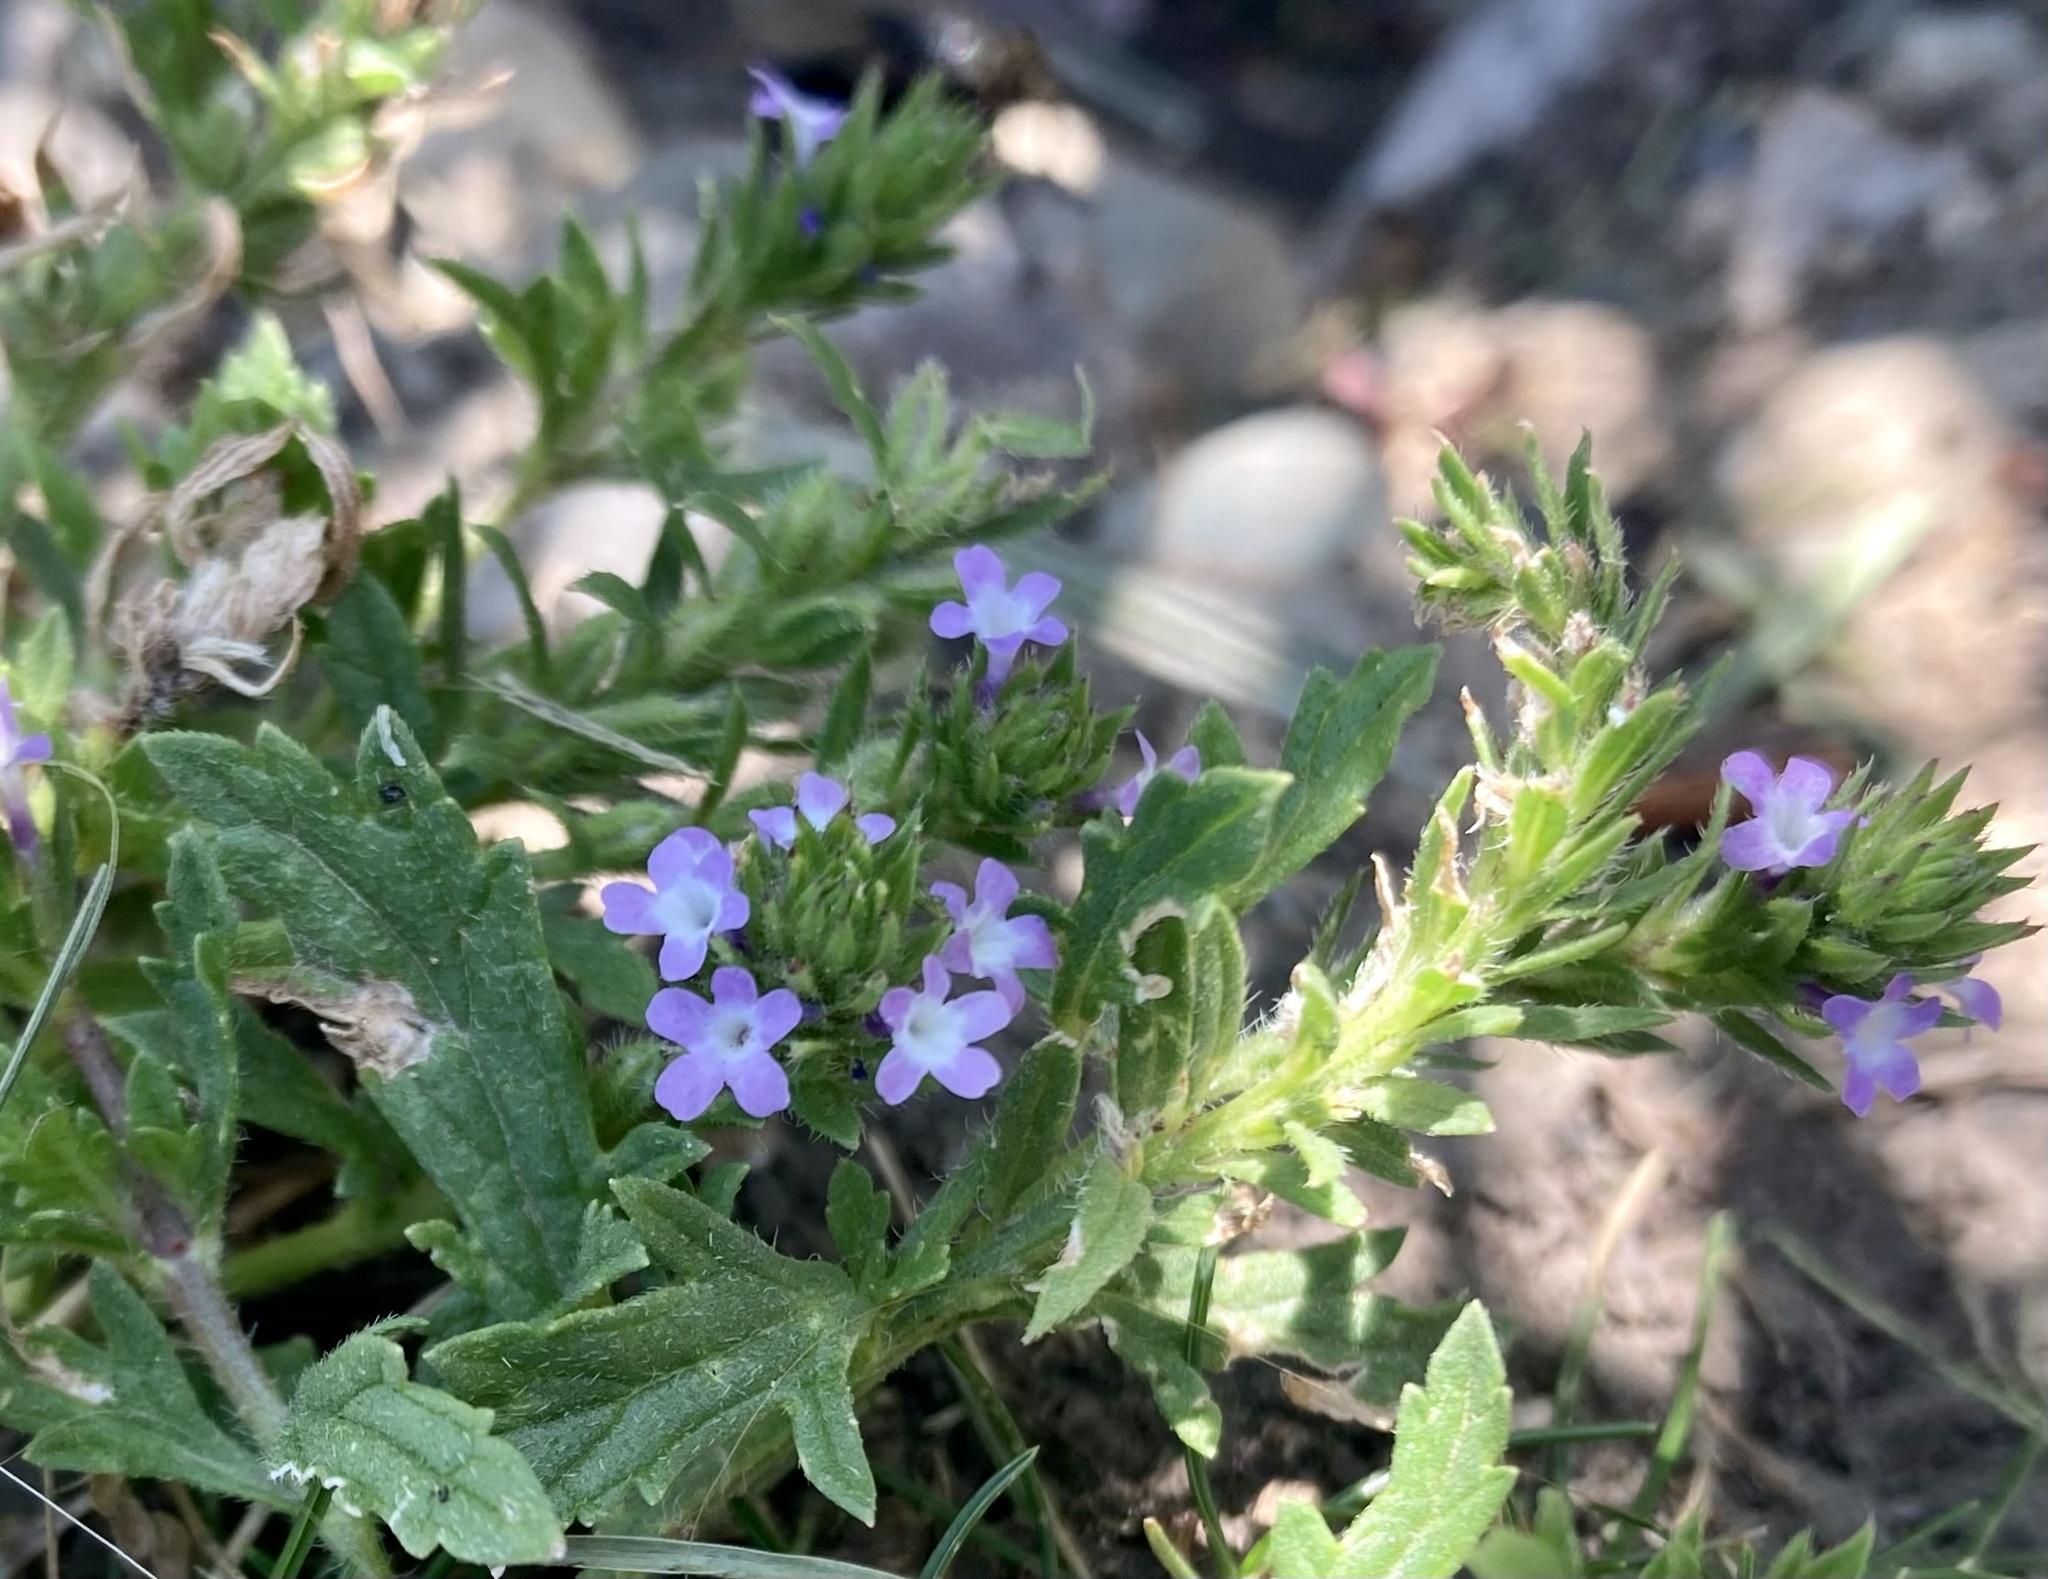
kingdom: Plantae
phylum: Tracheophyta
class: Magnoliopsida
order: Lamiales
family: Verbenaceae
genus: Verbena
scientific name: Verbena bracteata
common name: Bracted vervain
